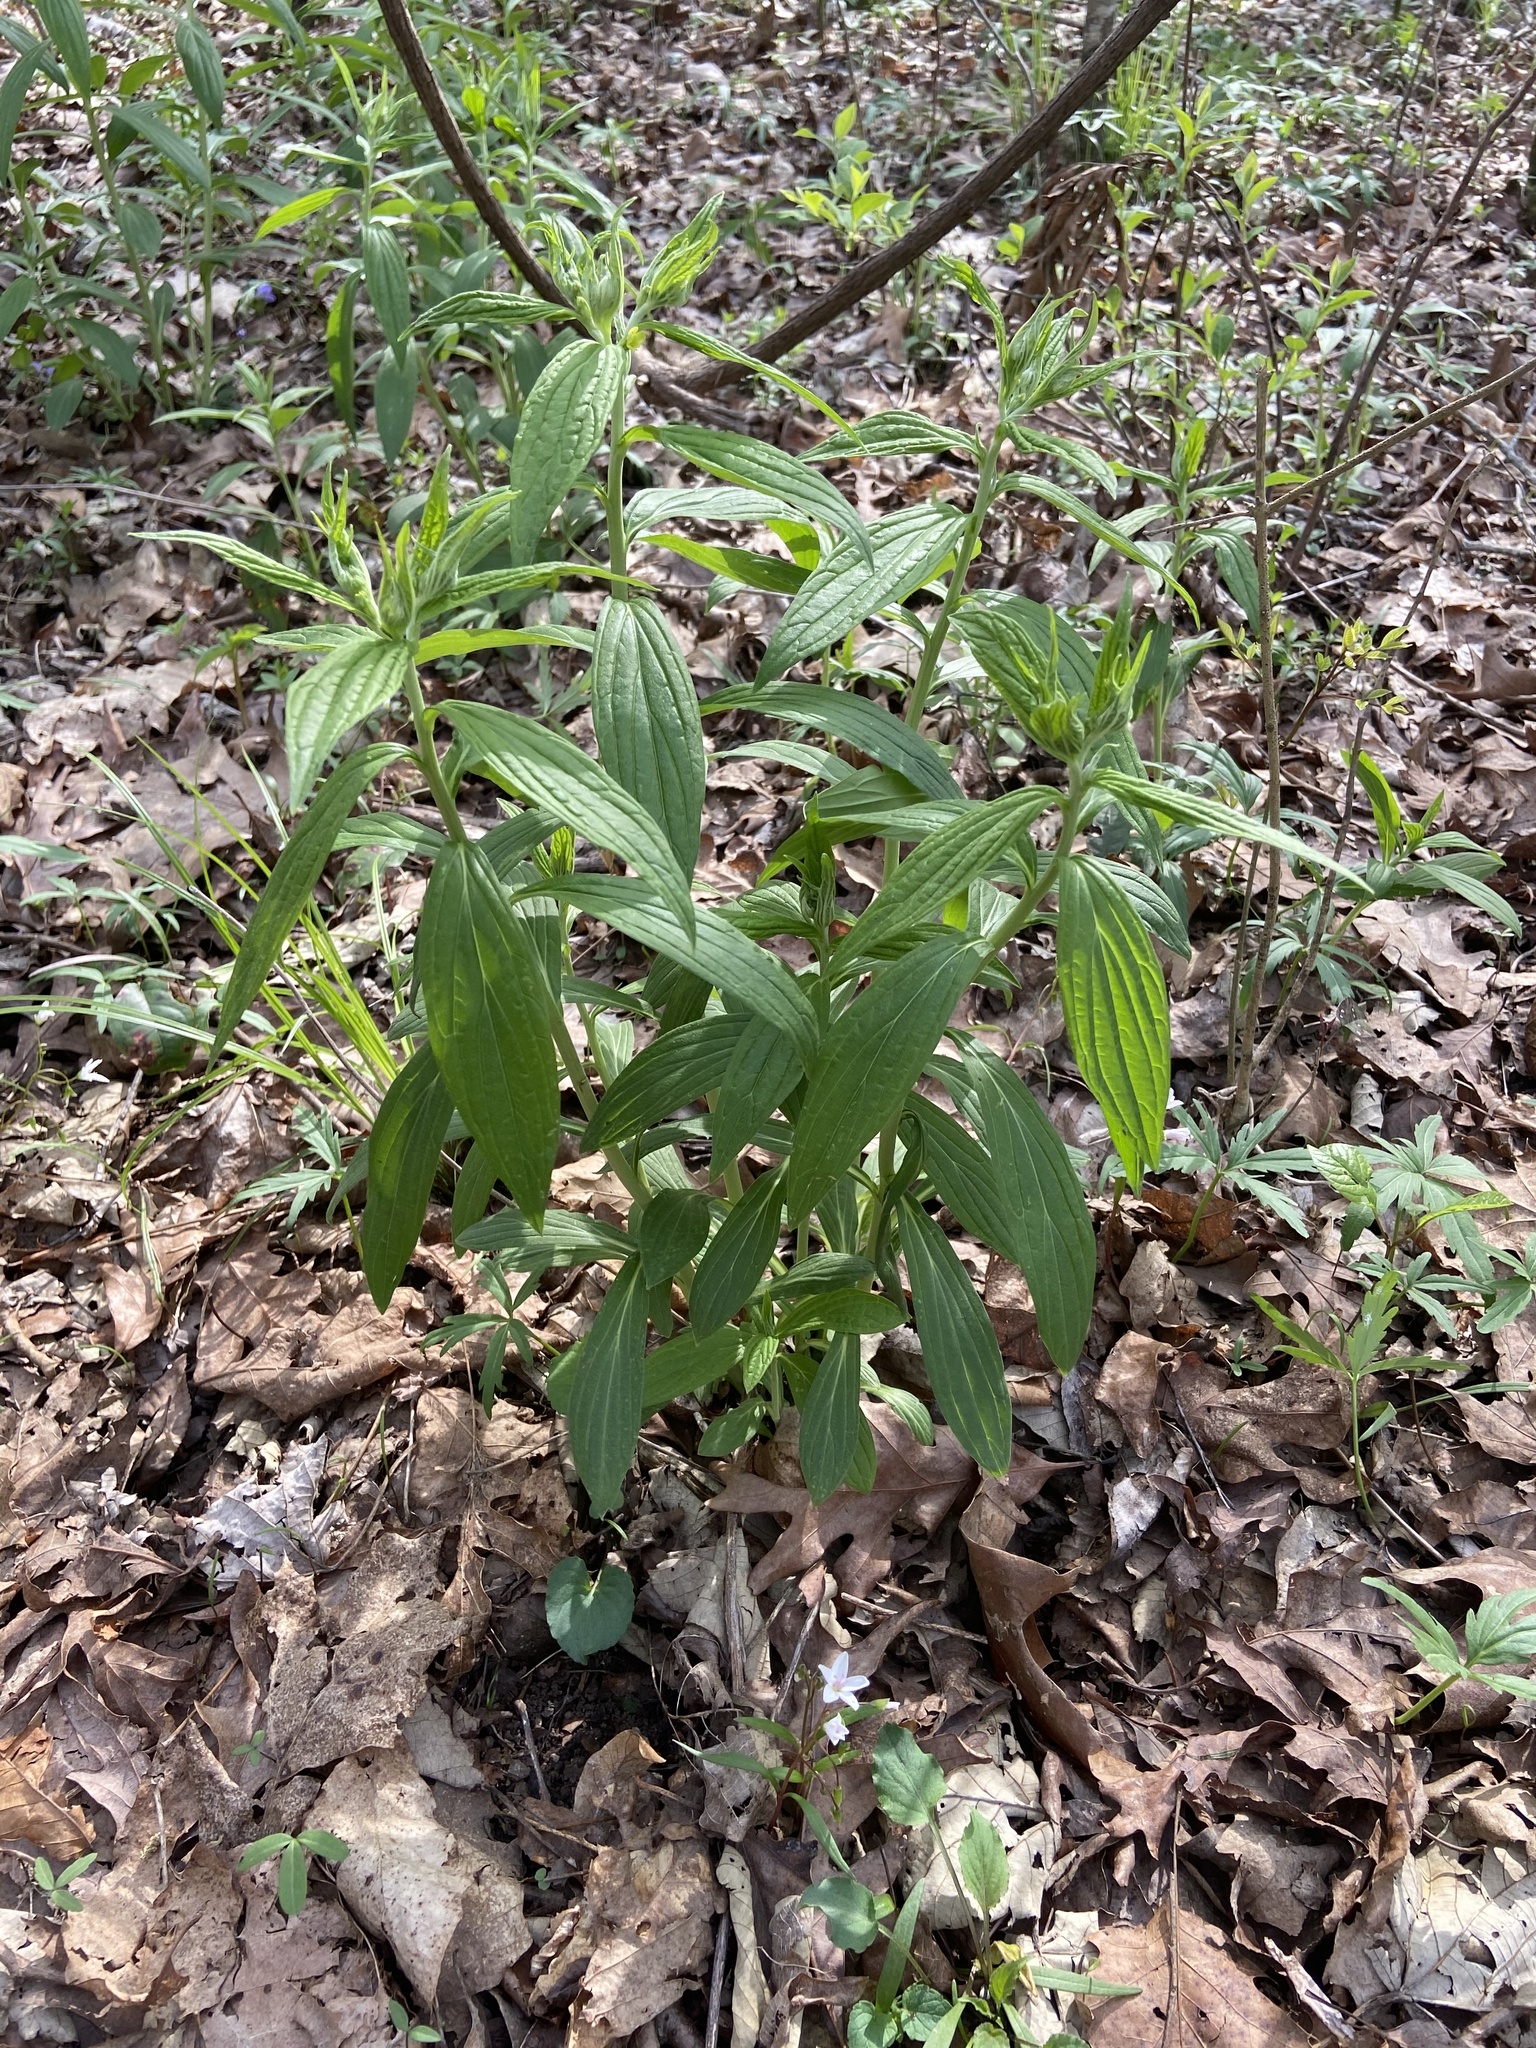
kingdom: Plantae
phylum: Tracheophyta
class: Magnoliopsida
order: Boraginales
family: Boraginaceae
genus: Lithospermum
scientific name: Lithospermum latifolium
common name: American gromwell
